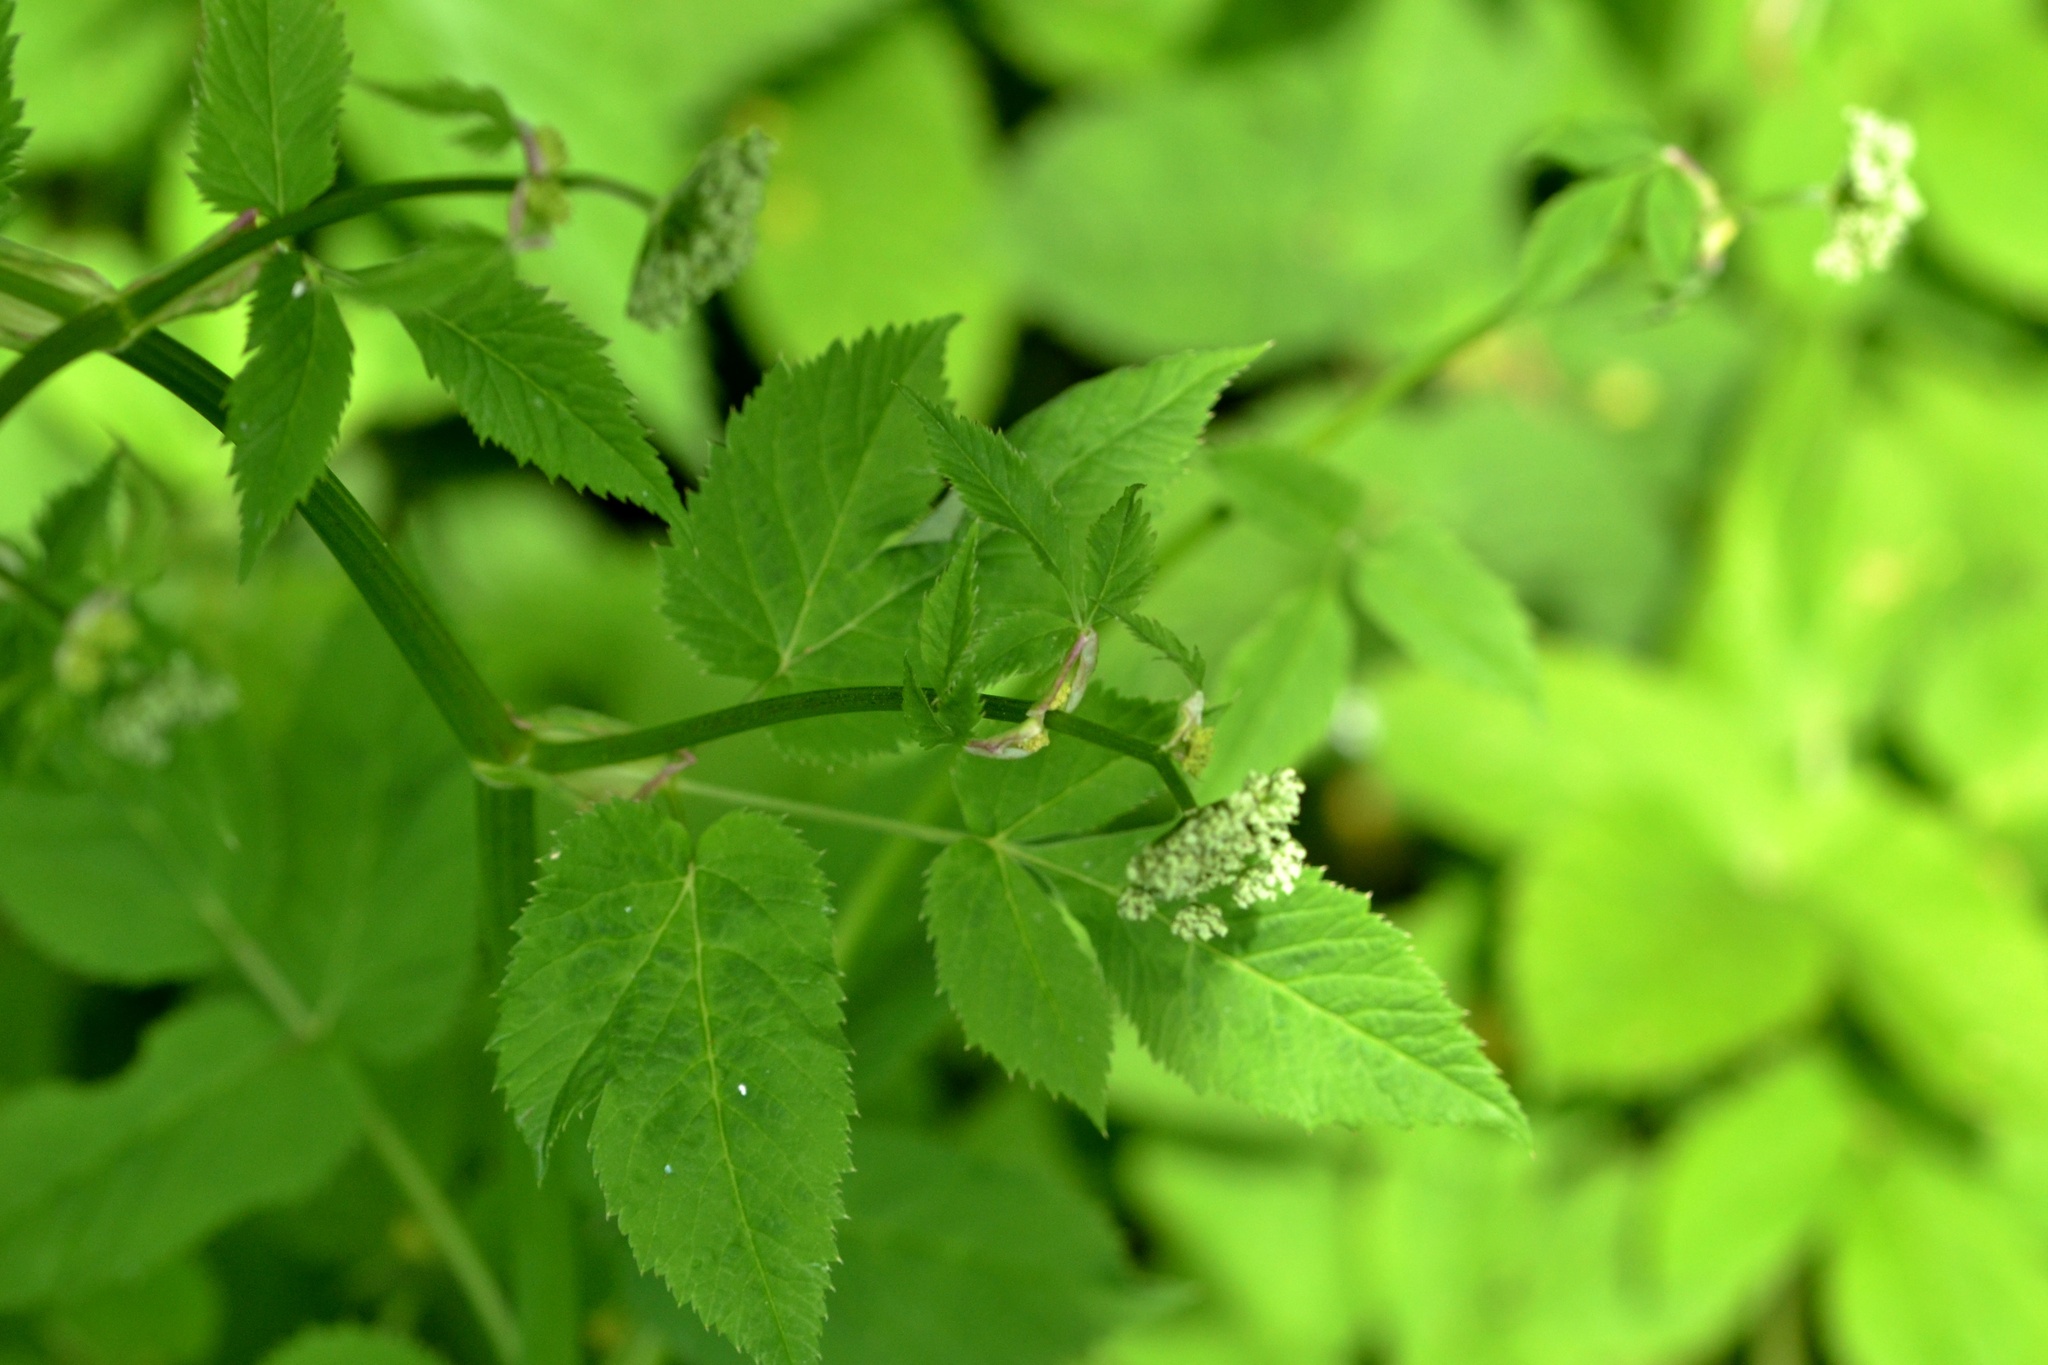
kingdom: Plantae
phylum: Tracheophyta
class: Magnoliopsida
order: Apiales
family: Apiaceae
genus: Aegopodium
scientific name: Aegopodium podagraria
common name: Ground-elder
